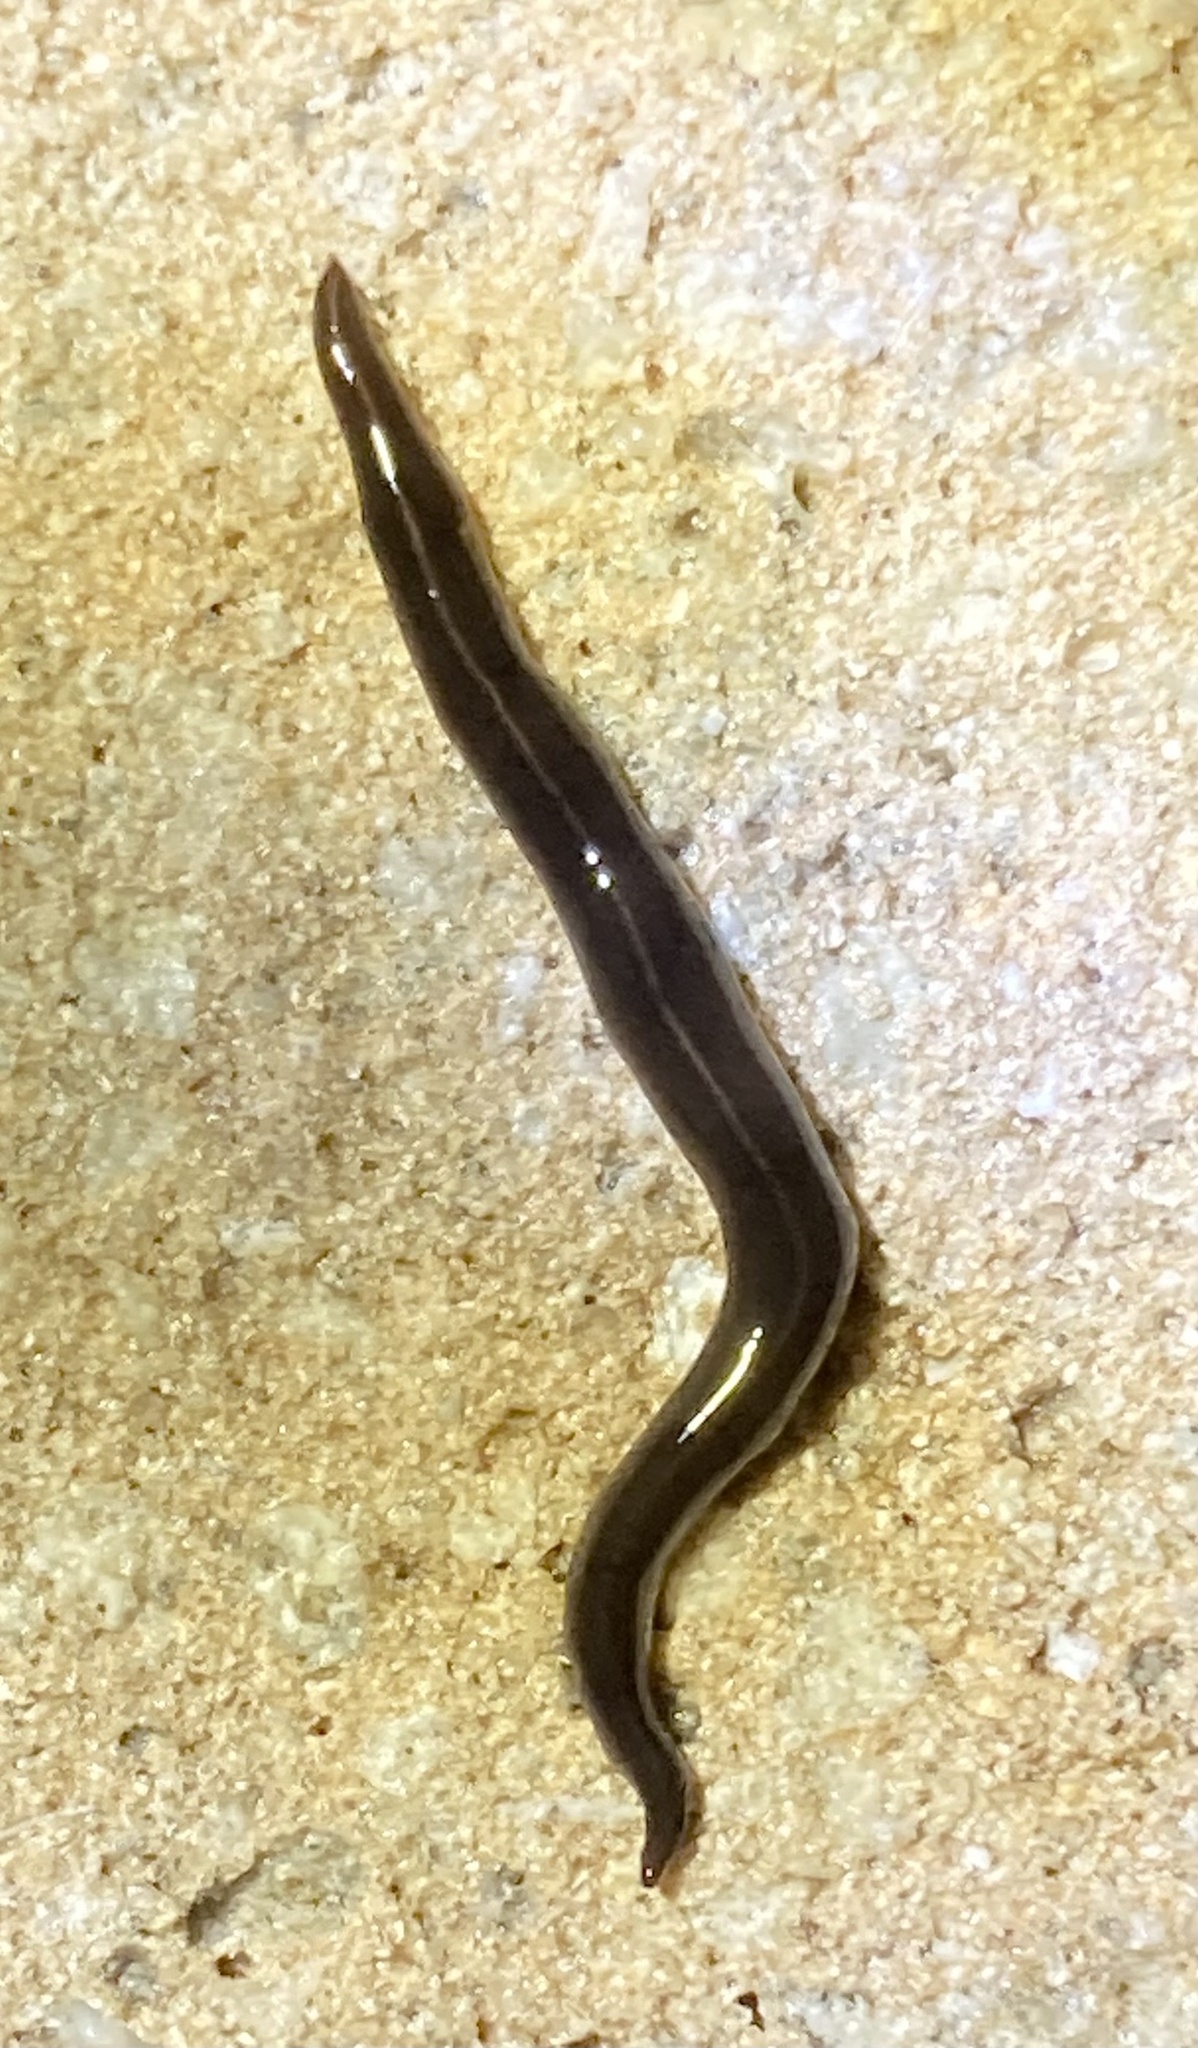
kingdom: Animalia
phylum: Platyhelminthes
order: Tricladida
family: Geoplanidae
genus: Platydemus
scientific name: Platydemus manokwari
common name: New guinea flatworm
